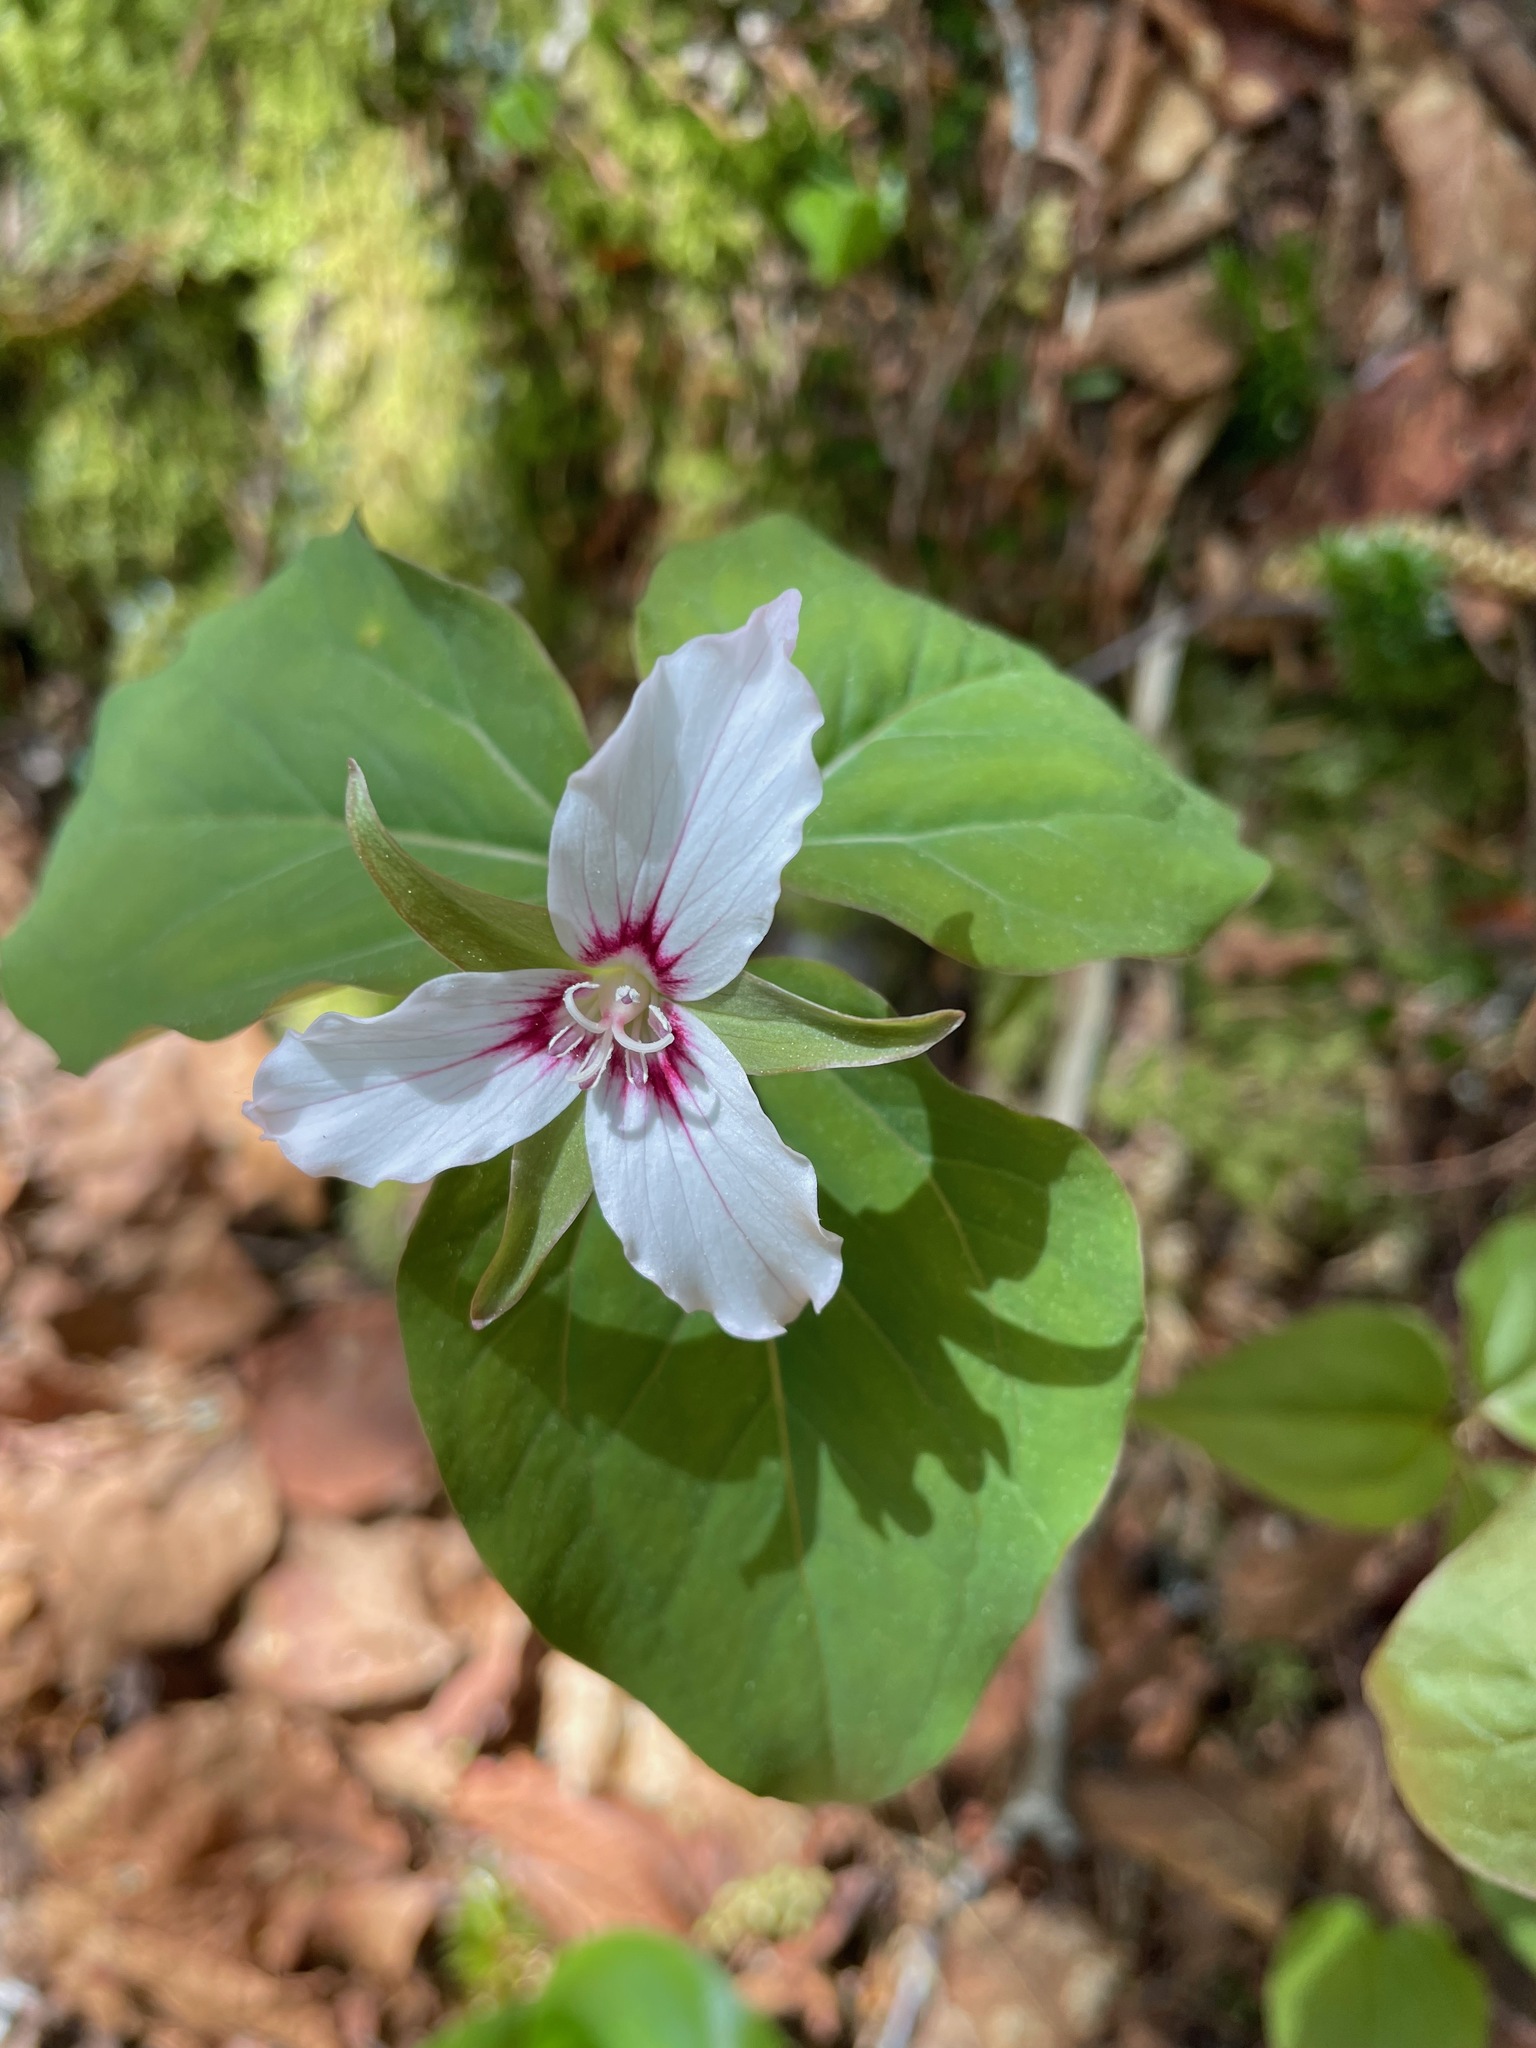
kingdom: Plantae
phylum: Tracheophyta
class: Liliopsida
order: Liliales
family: Melanthiaceae
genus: Trillium
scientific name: Trillium undulatum
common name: Paint trillium
